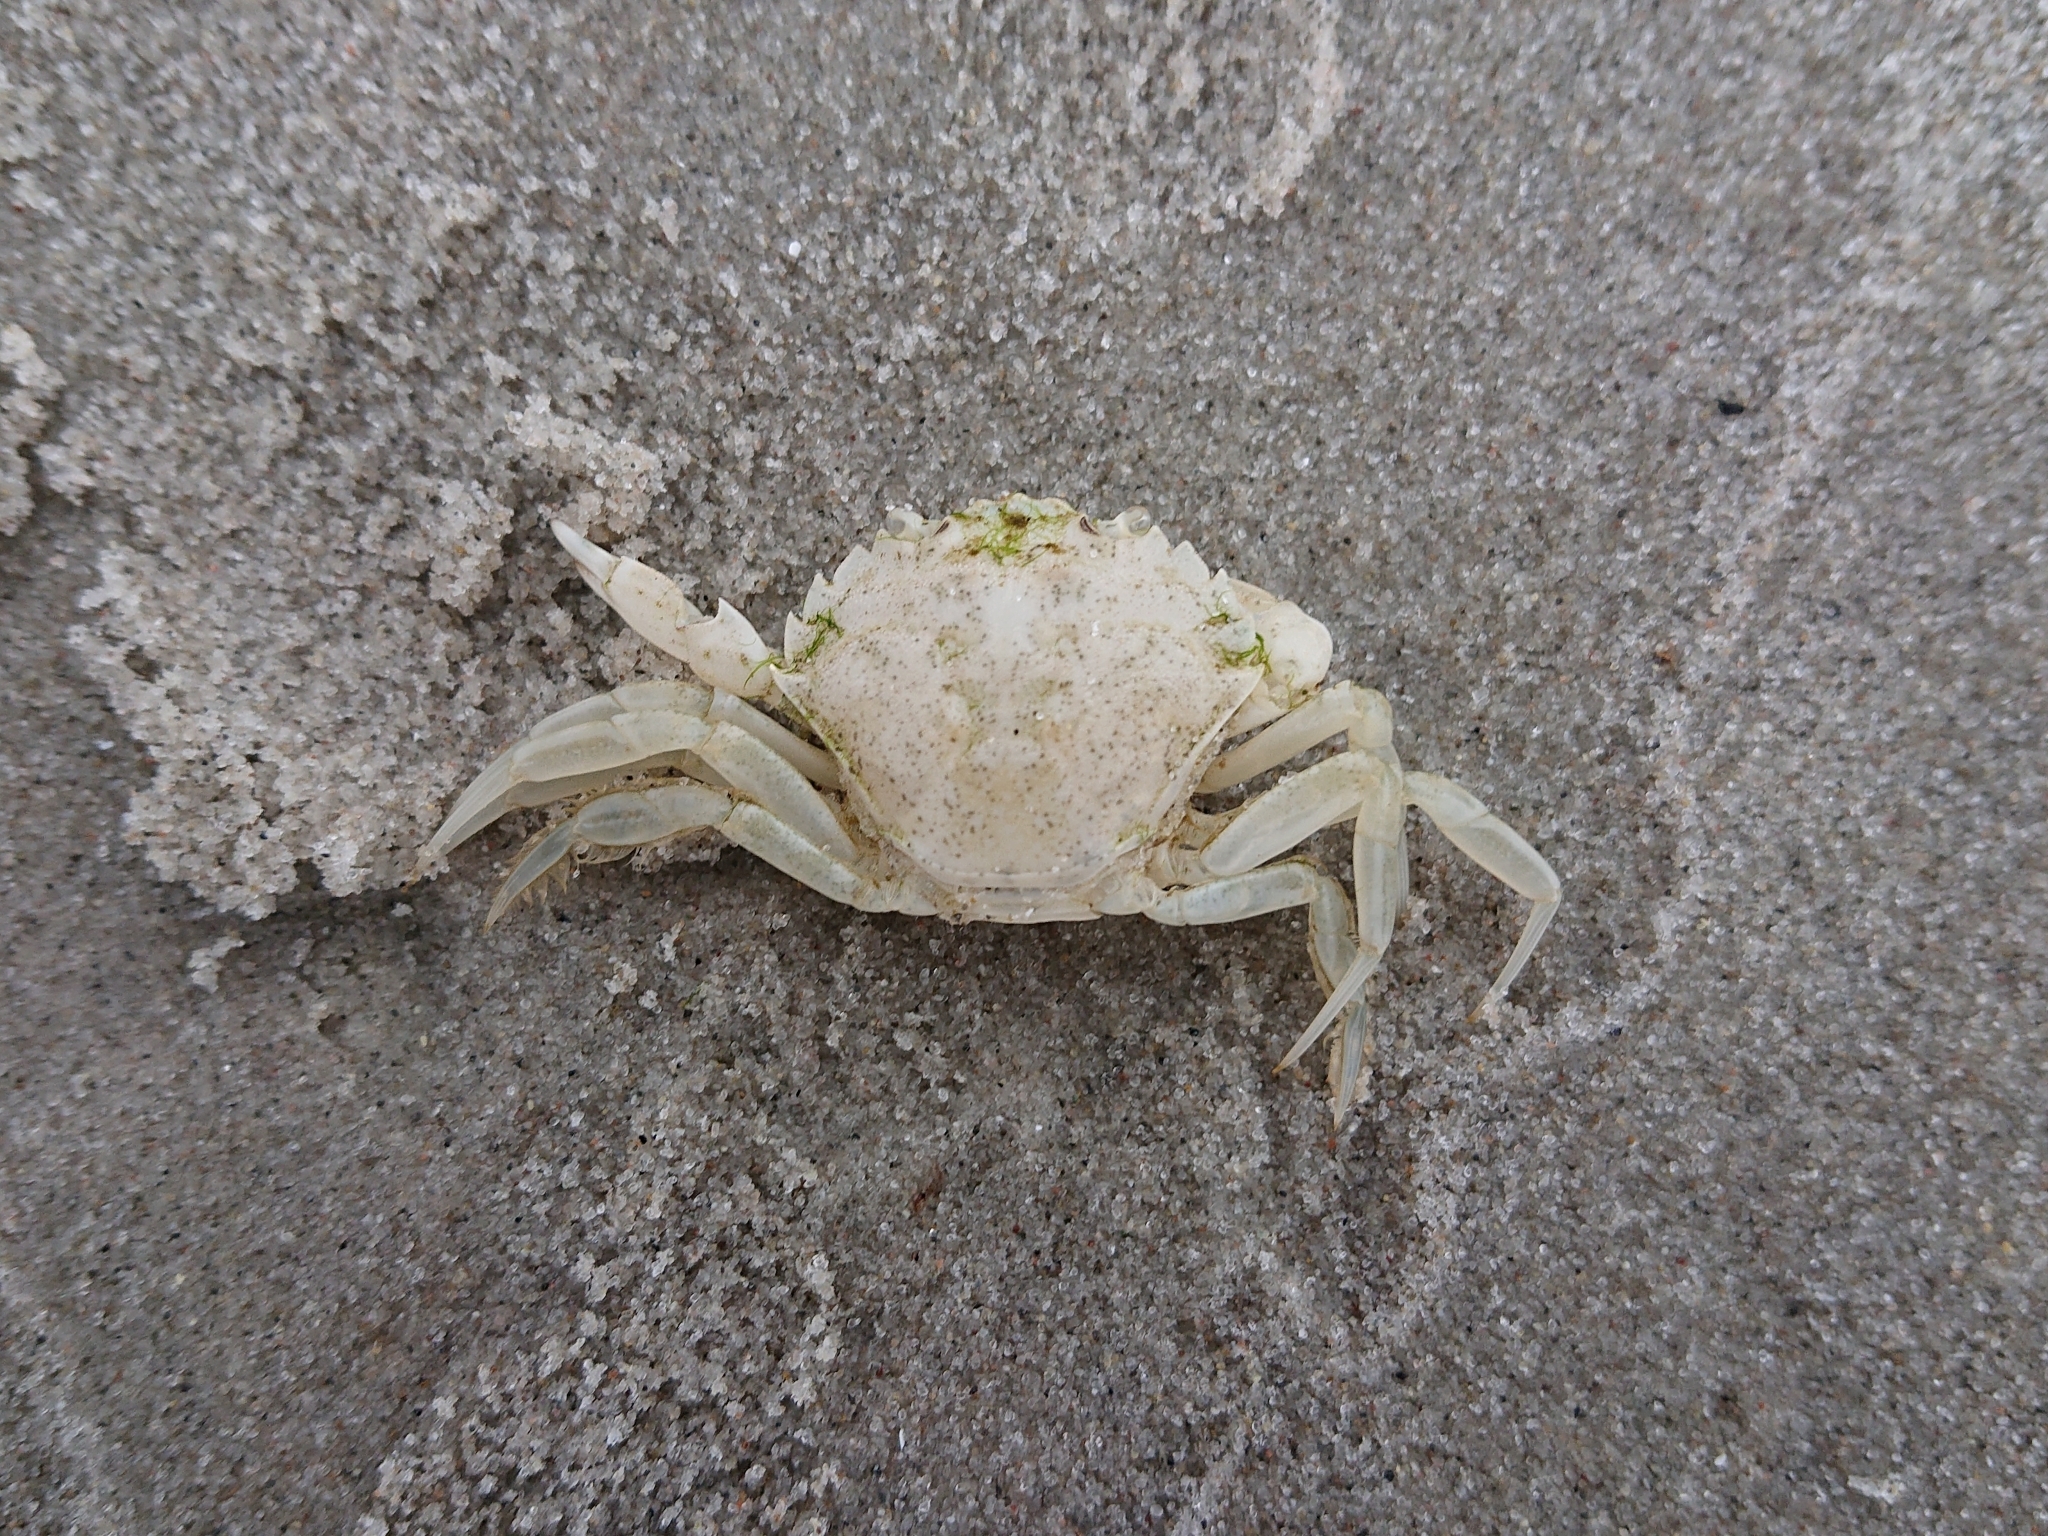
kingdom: Animalia
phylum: Arthropoda
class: Malacostraca
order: Decapoda
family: Carcinidae
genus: Carcinus
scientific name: Carcinus maenas
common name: European green crab
